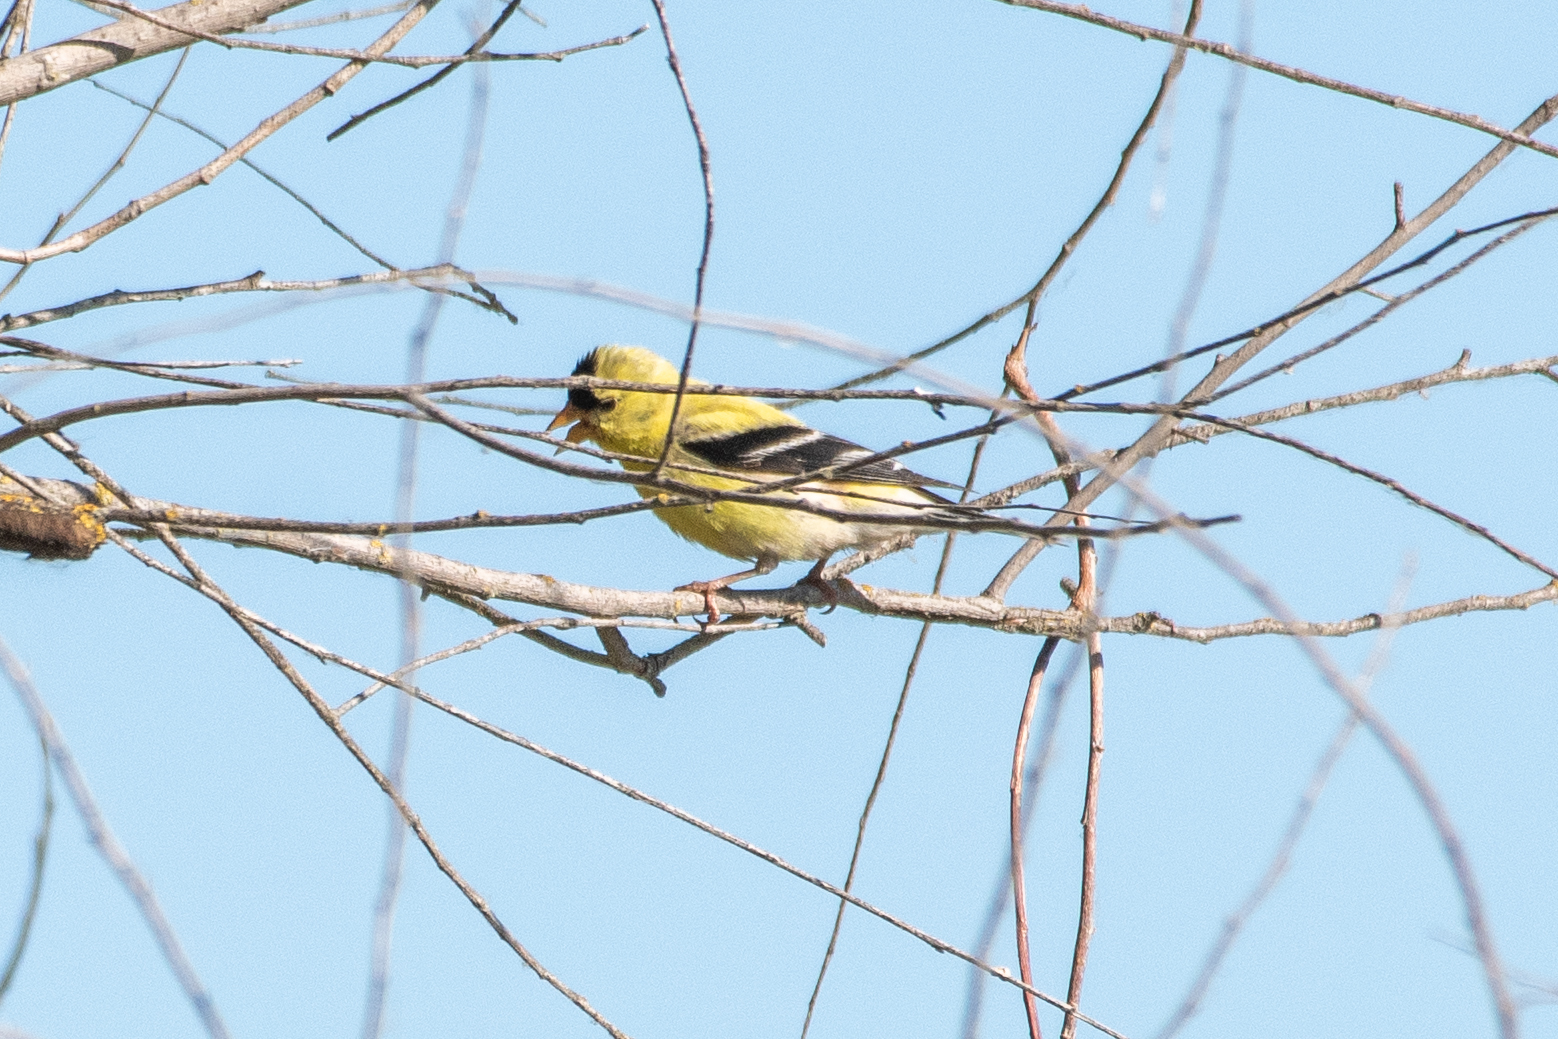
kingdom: Animalia
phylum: Chordata
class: Aves
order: Passeriformes
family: Fringillidae
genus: Spinus
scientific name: Spinus tristis
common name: American goldfinch
